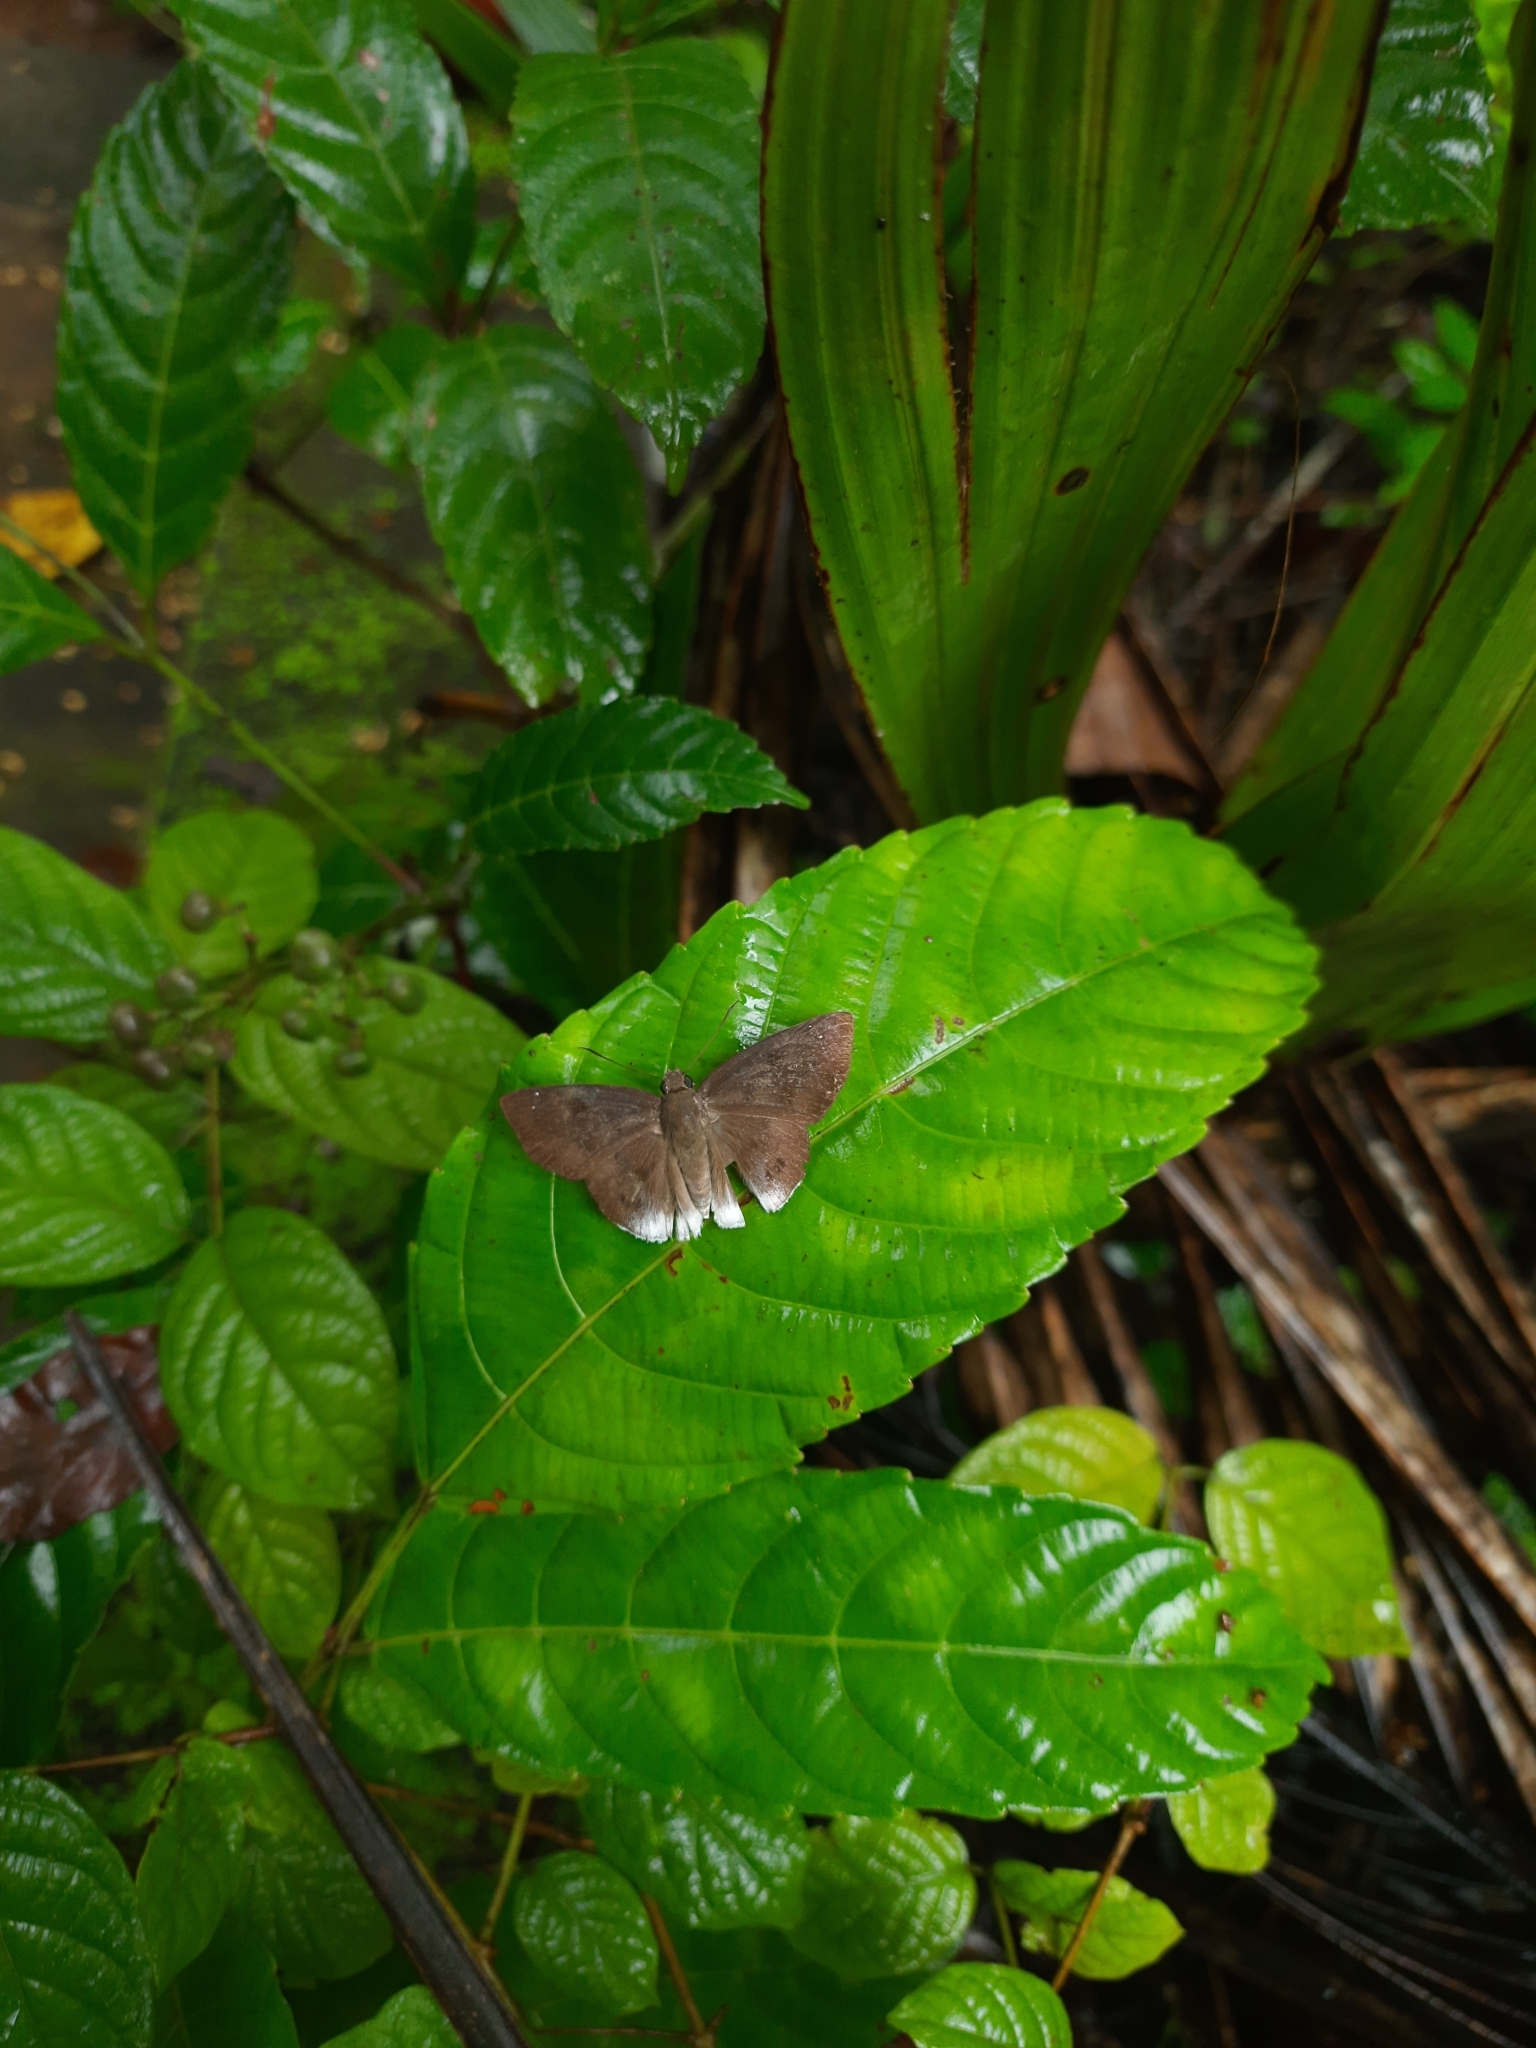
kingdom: Animalia
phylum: Arthropoda
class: Insecta
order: Lepidoptera
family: Hesperiidae
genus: Tagiades
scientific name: Tagiades gana
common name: Suffused snow flat
